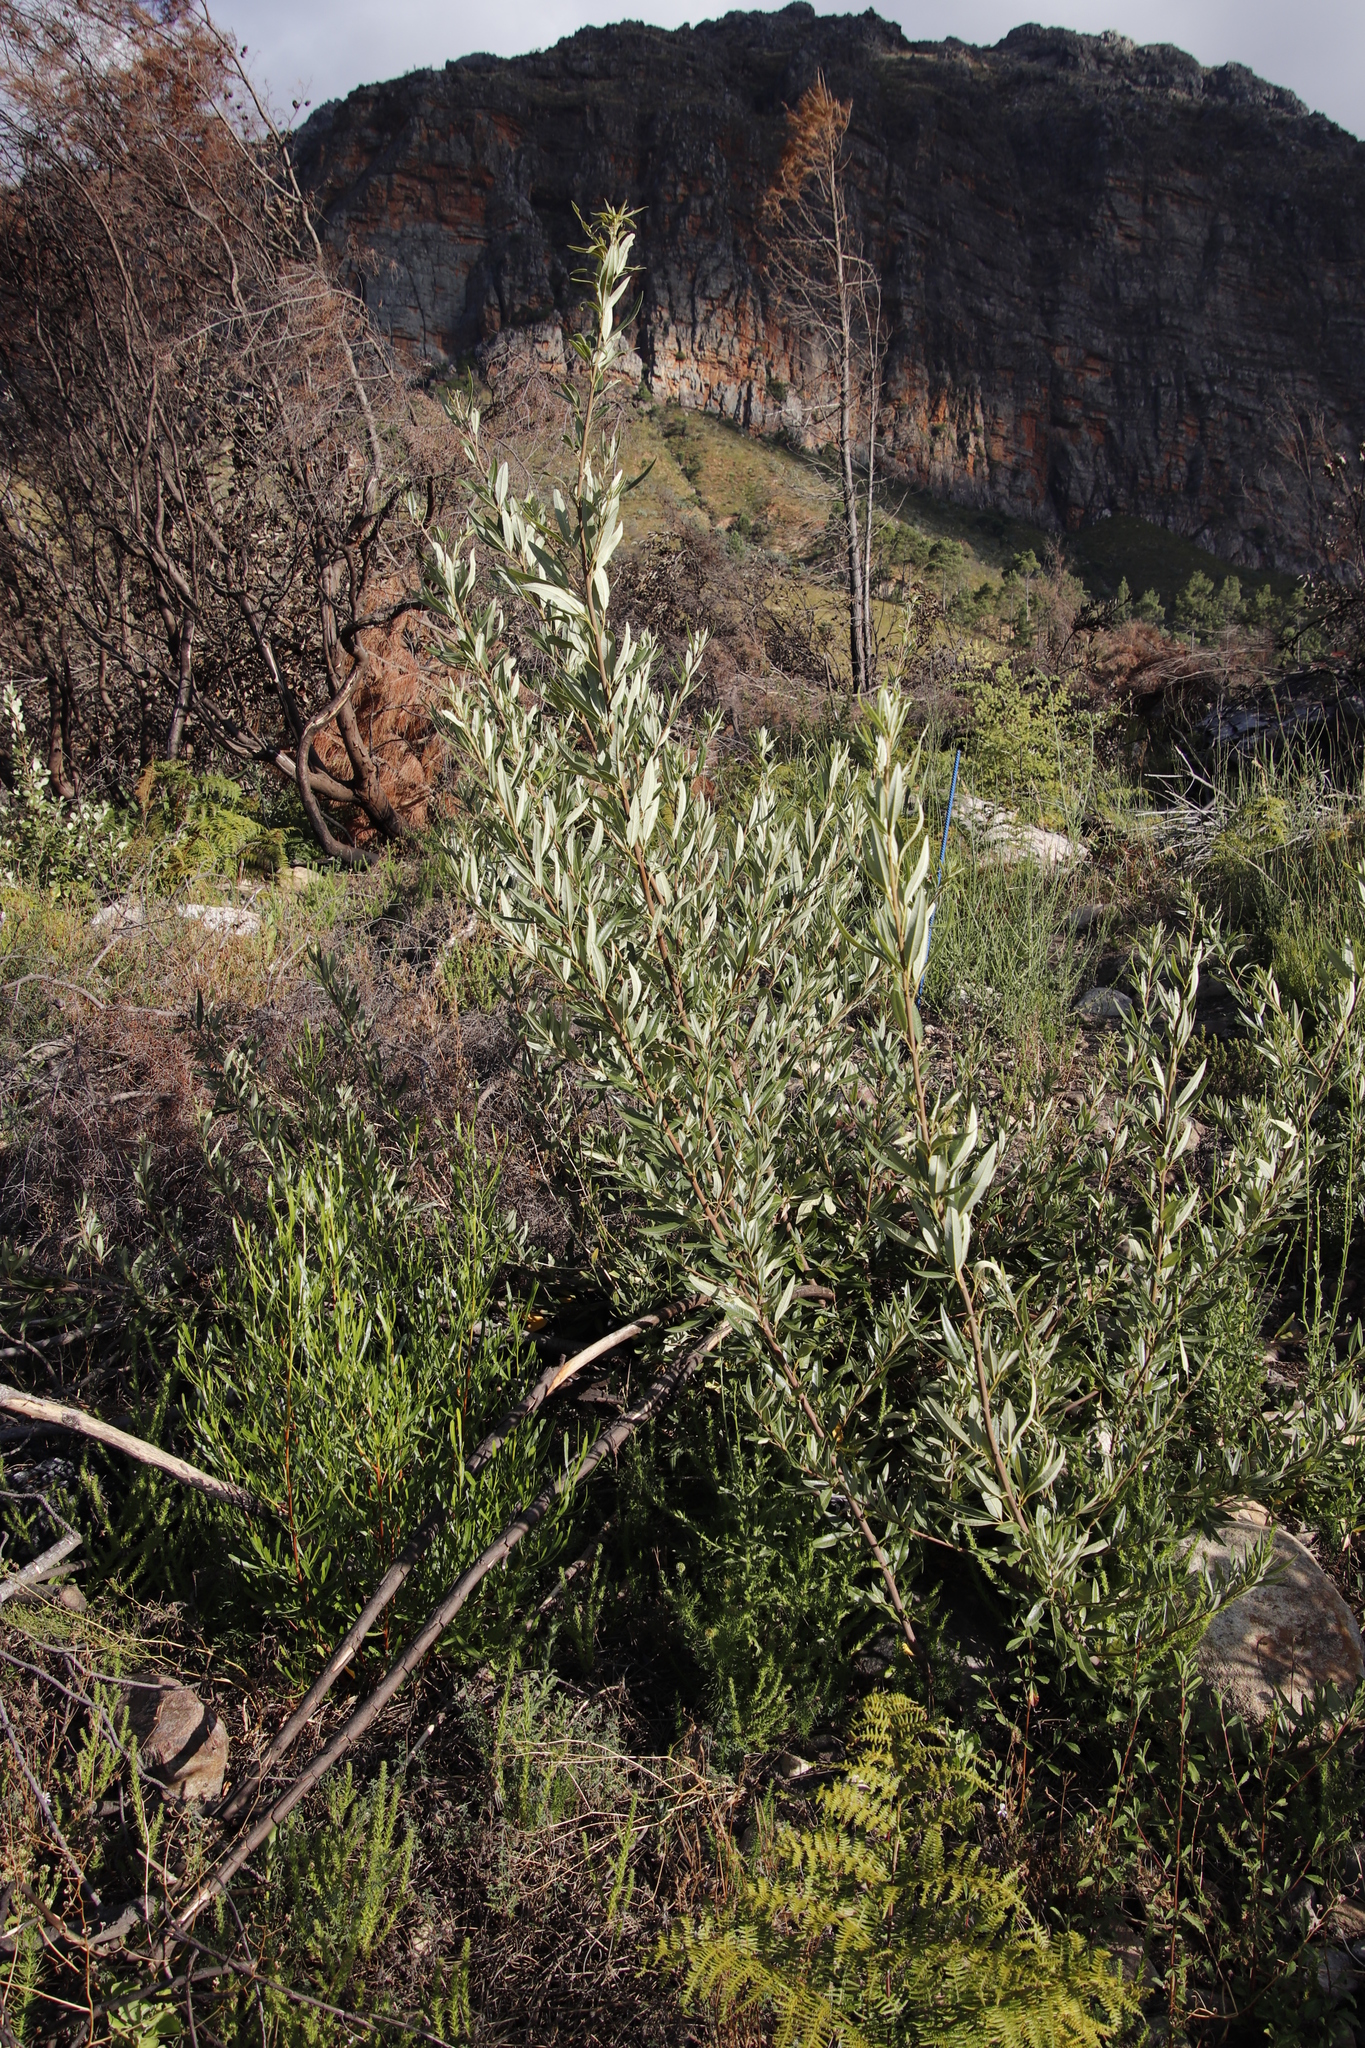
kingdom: Plantae
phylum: Tracheophyta
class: Magnoliopsida
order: Sapindales
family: Anacardiaceae
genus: Searsia
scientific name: Searsia angustifolia
